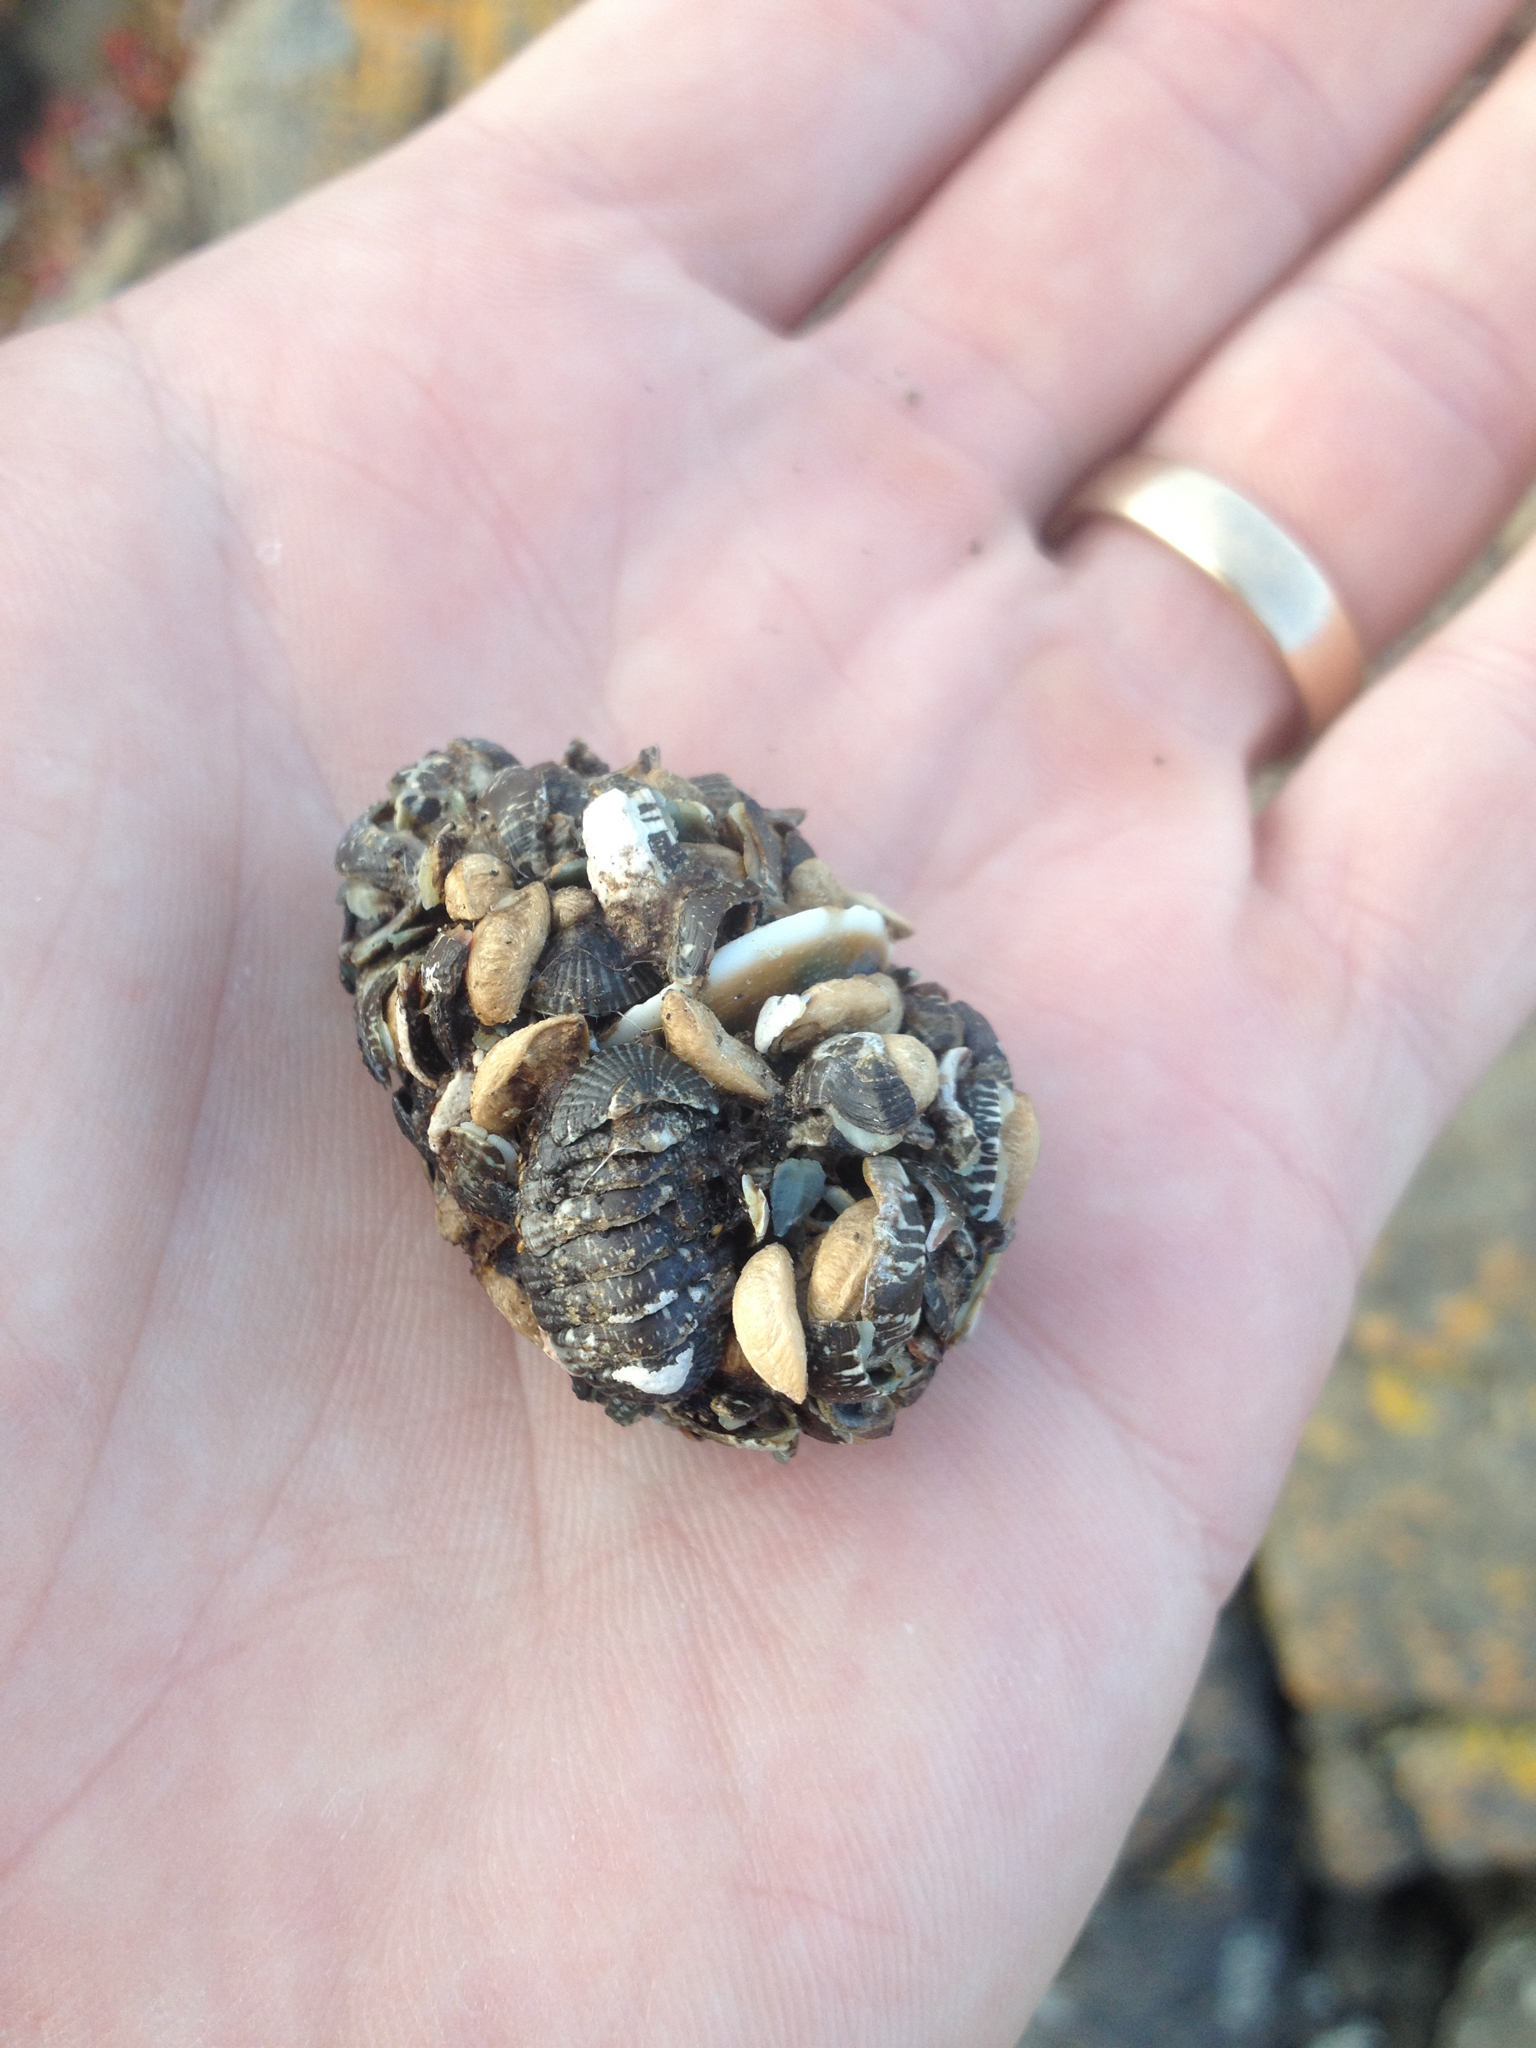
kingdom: Animalia
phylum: Chordata
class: Aves
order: Charadriiformes
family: Laridae
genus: Larus
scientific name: Larus dominicanus
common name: Kelp gull
